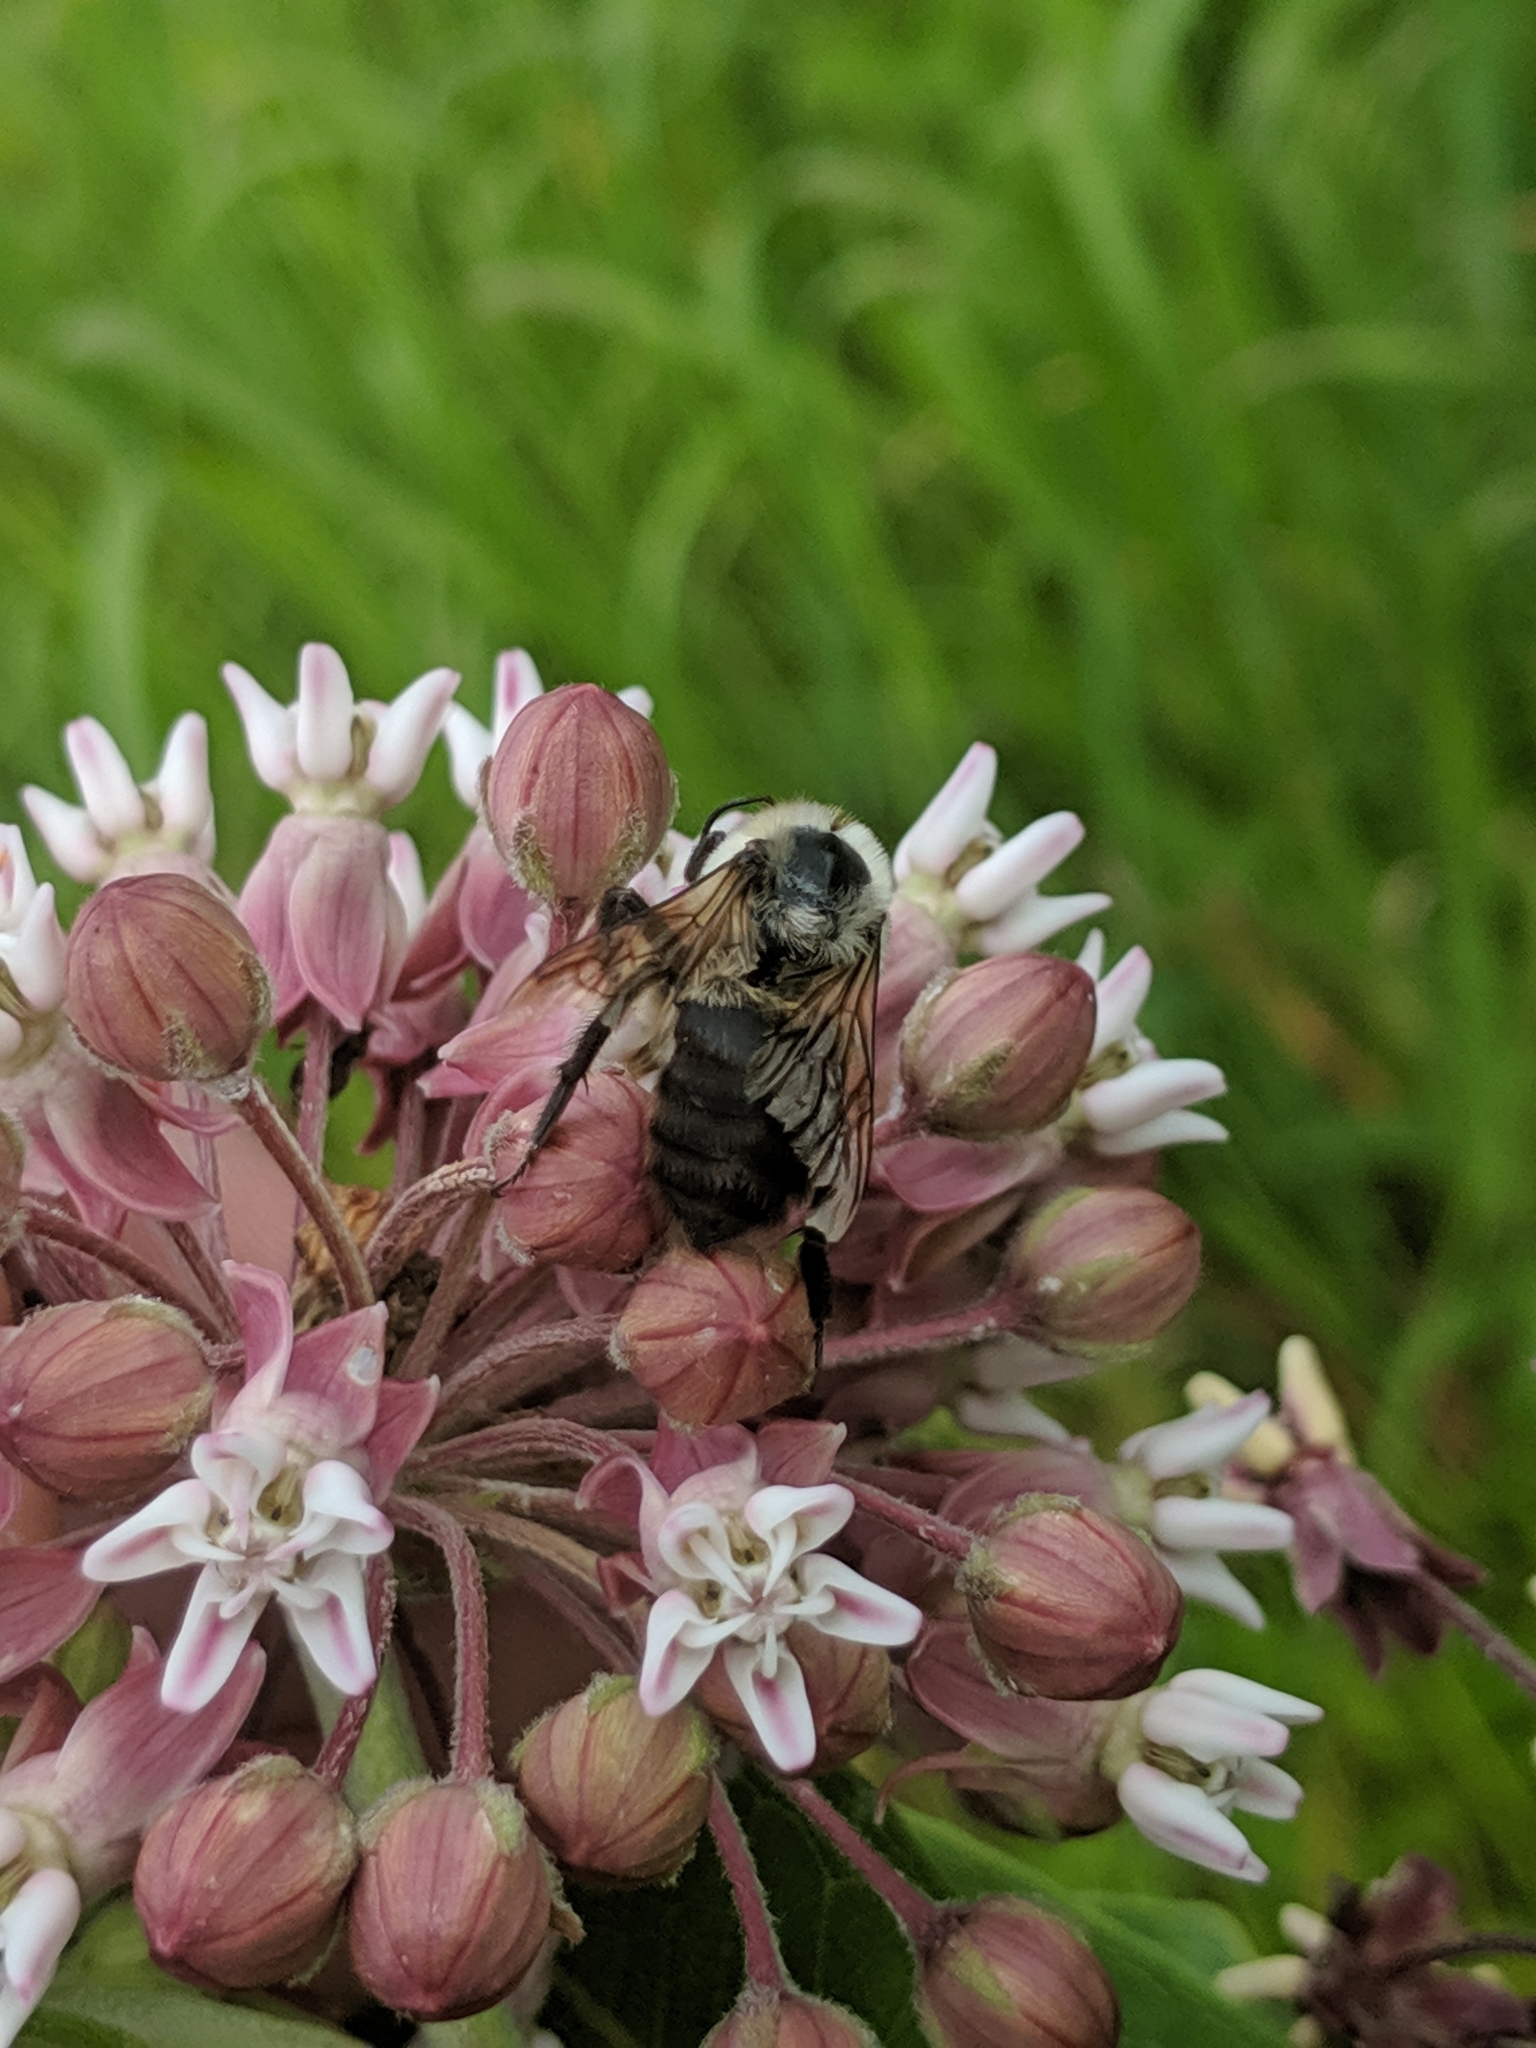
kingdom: Animalia
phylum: Arthropoda
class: Insecta
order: Hymenoptera
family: Apidae
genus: Bombus
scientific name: Bombus griseocollis
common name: Brown-belted bumble bee
